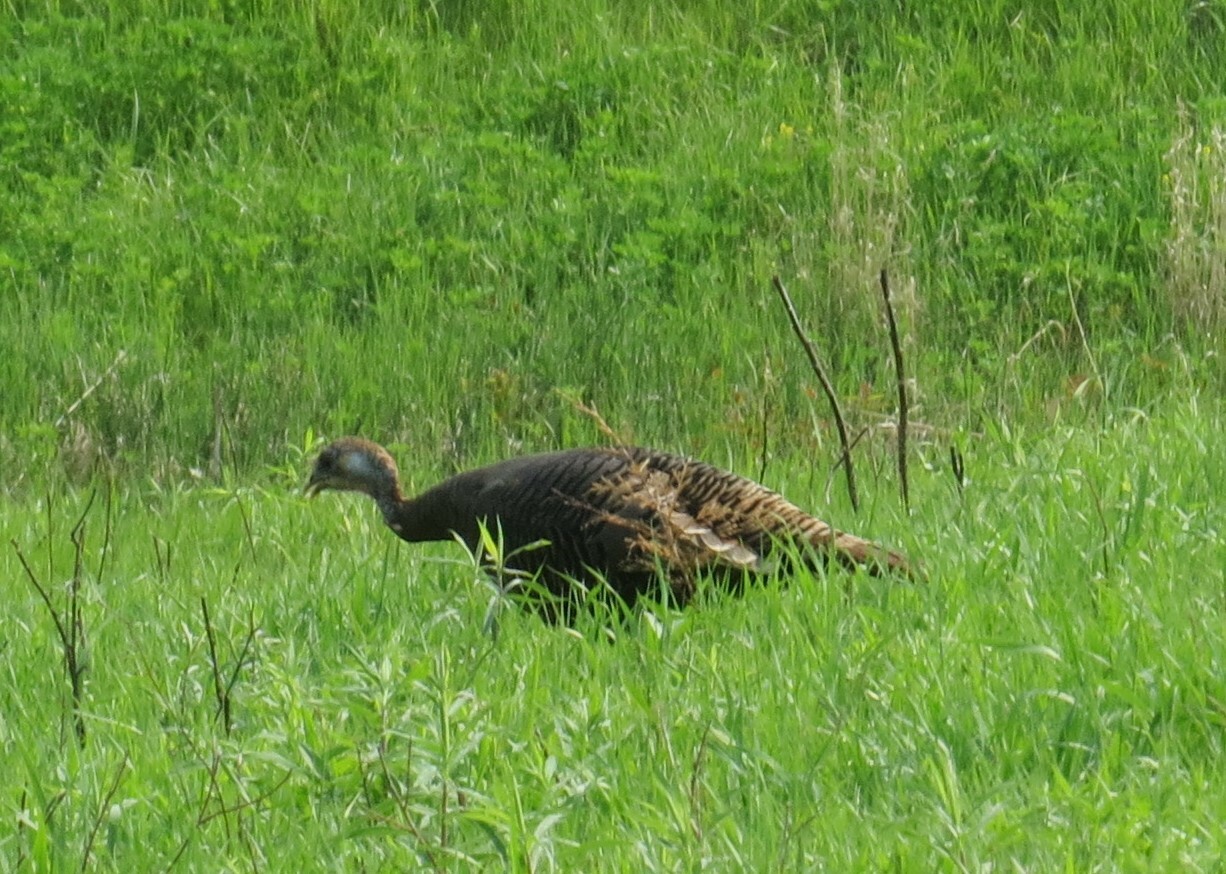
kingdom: Animalia
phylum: Chordata
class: Aves
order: Galliformes
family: Phasianidae
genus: Meleagris
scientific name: Meleagris gallopavo
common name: Wild turkey
